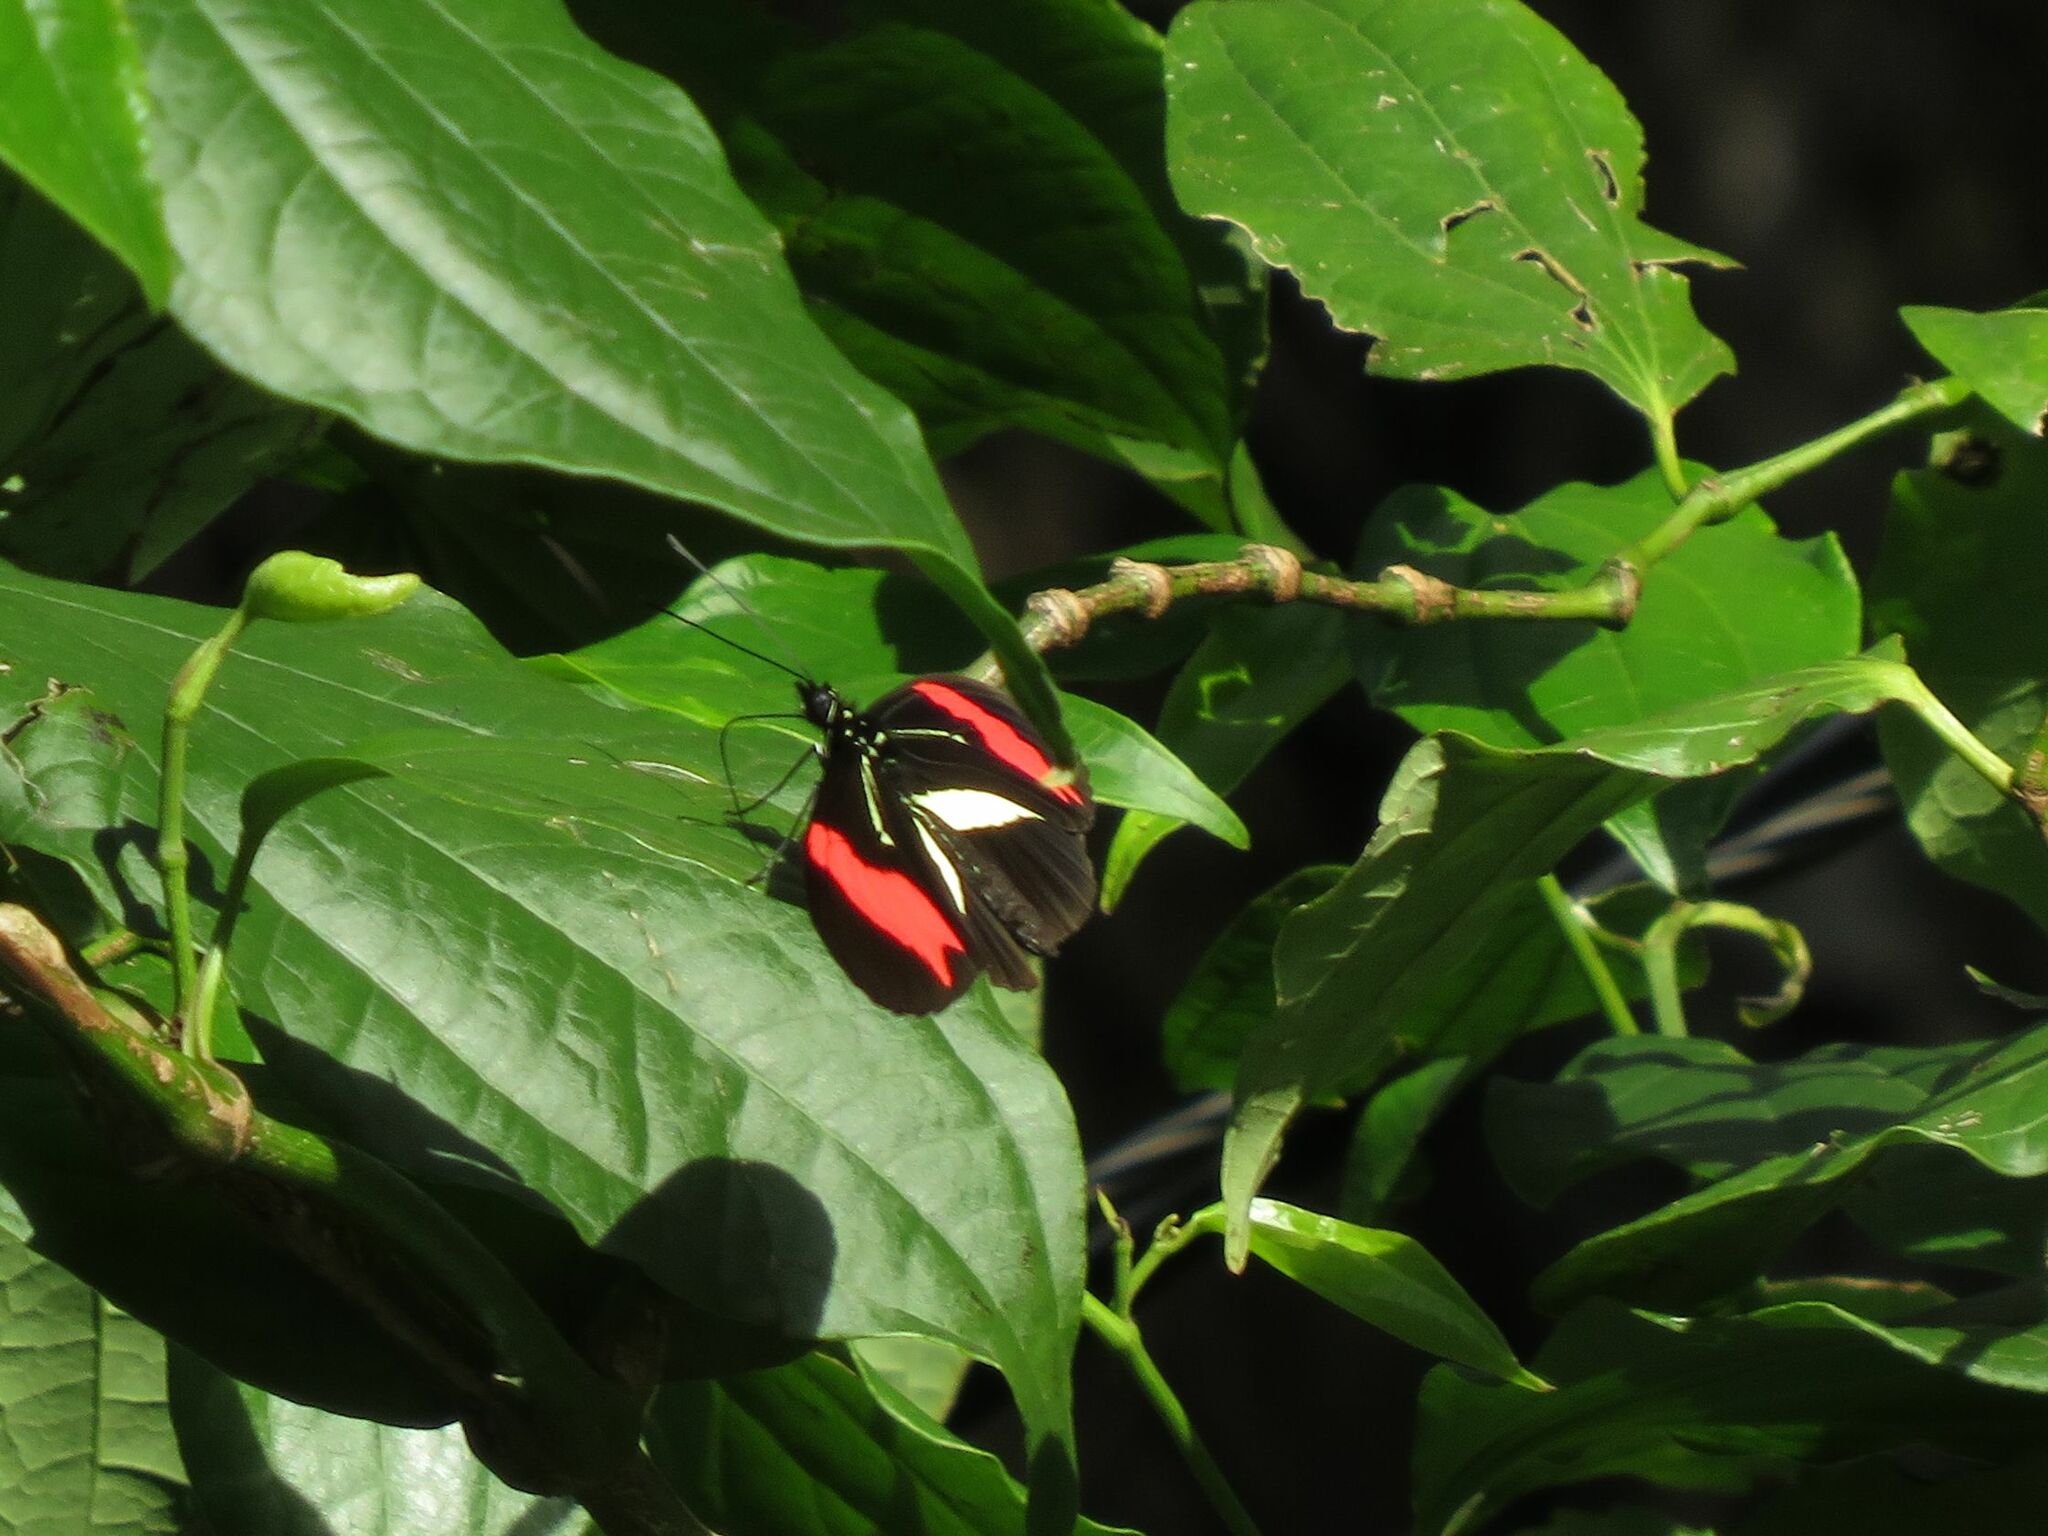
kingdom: Animalia
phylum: Arthropoda
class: Insecta
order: Lepidoptera
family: Nymphalidae
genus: Heliconius
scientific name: Heliconius erato
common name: Common patch longwing
